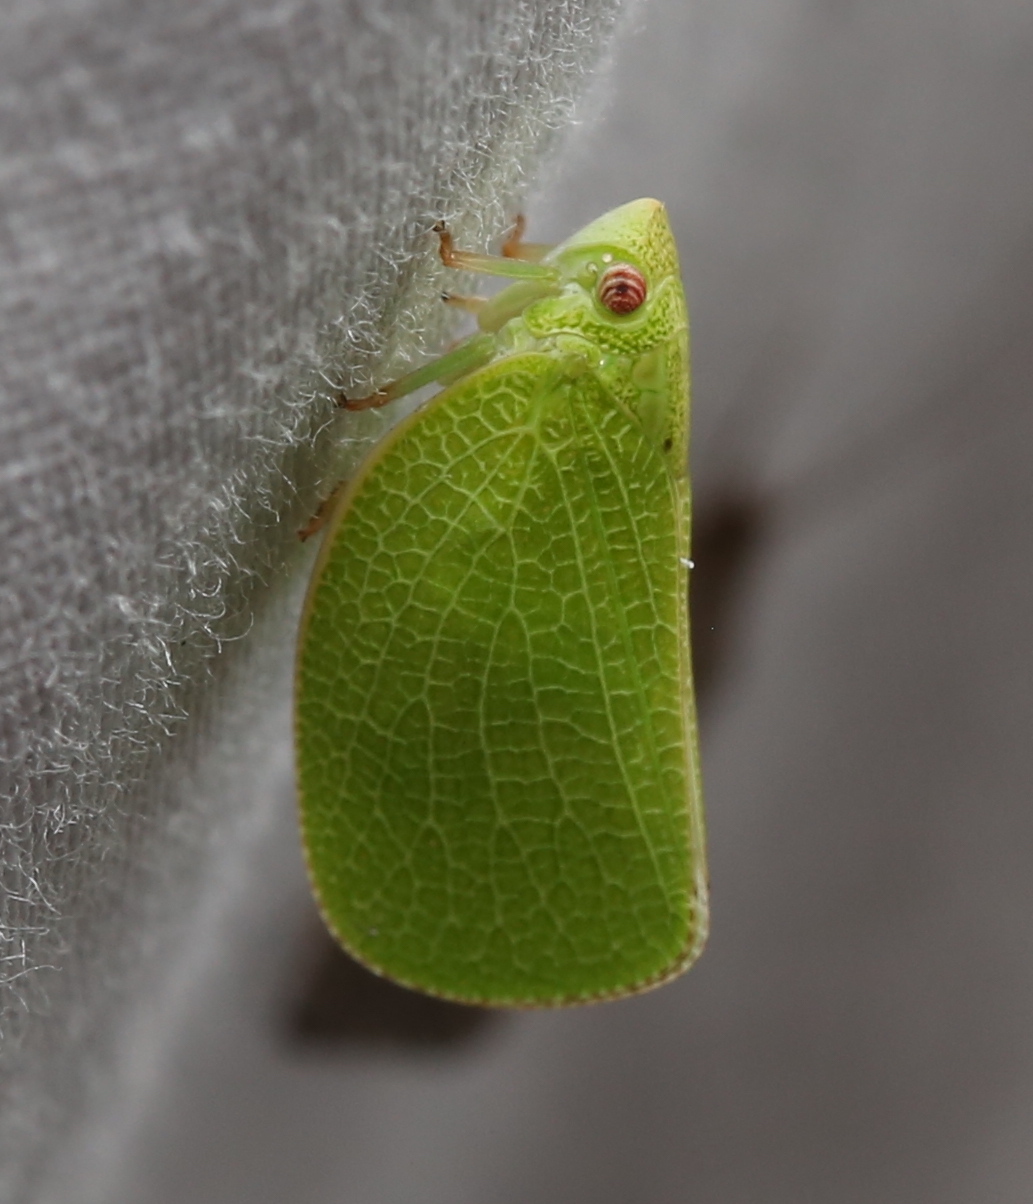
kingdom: Animalia
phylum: Arthropoda
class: Insecta
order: Hemiptera
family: Acanaloniidae
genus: Acanalonia
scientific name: Acanalonia conica
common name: Green cone-headed planthopper
